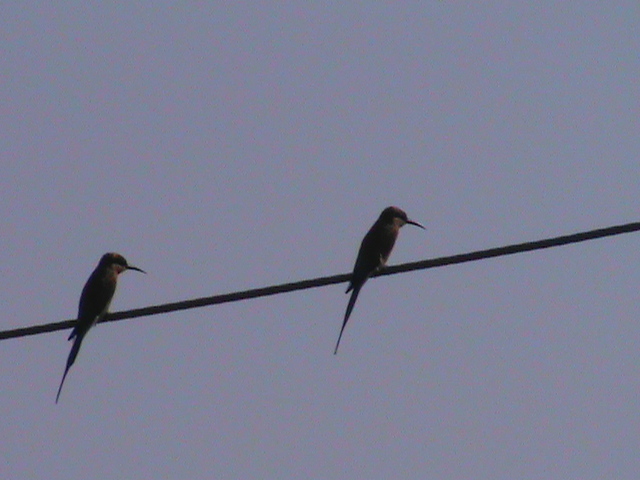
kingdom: Animalia
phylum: Chordata
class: Aves
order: Coraciiformes
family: Meropidae
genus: Merops
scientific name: Merops philippinus
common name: Blue-tailed bee-eater
